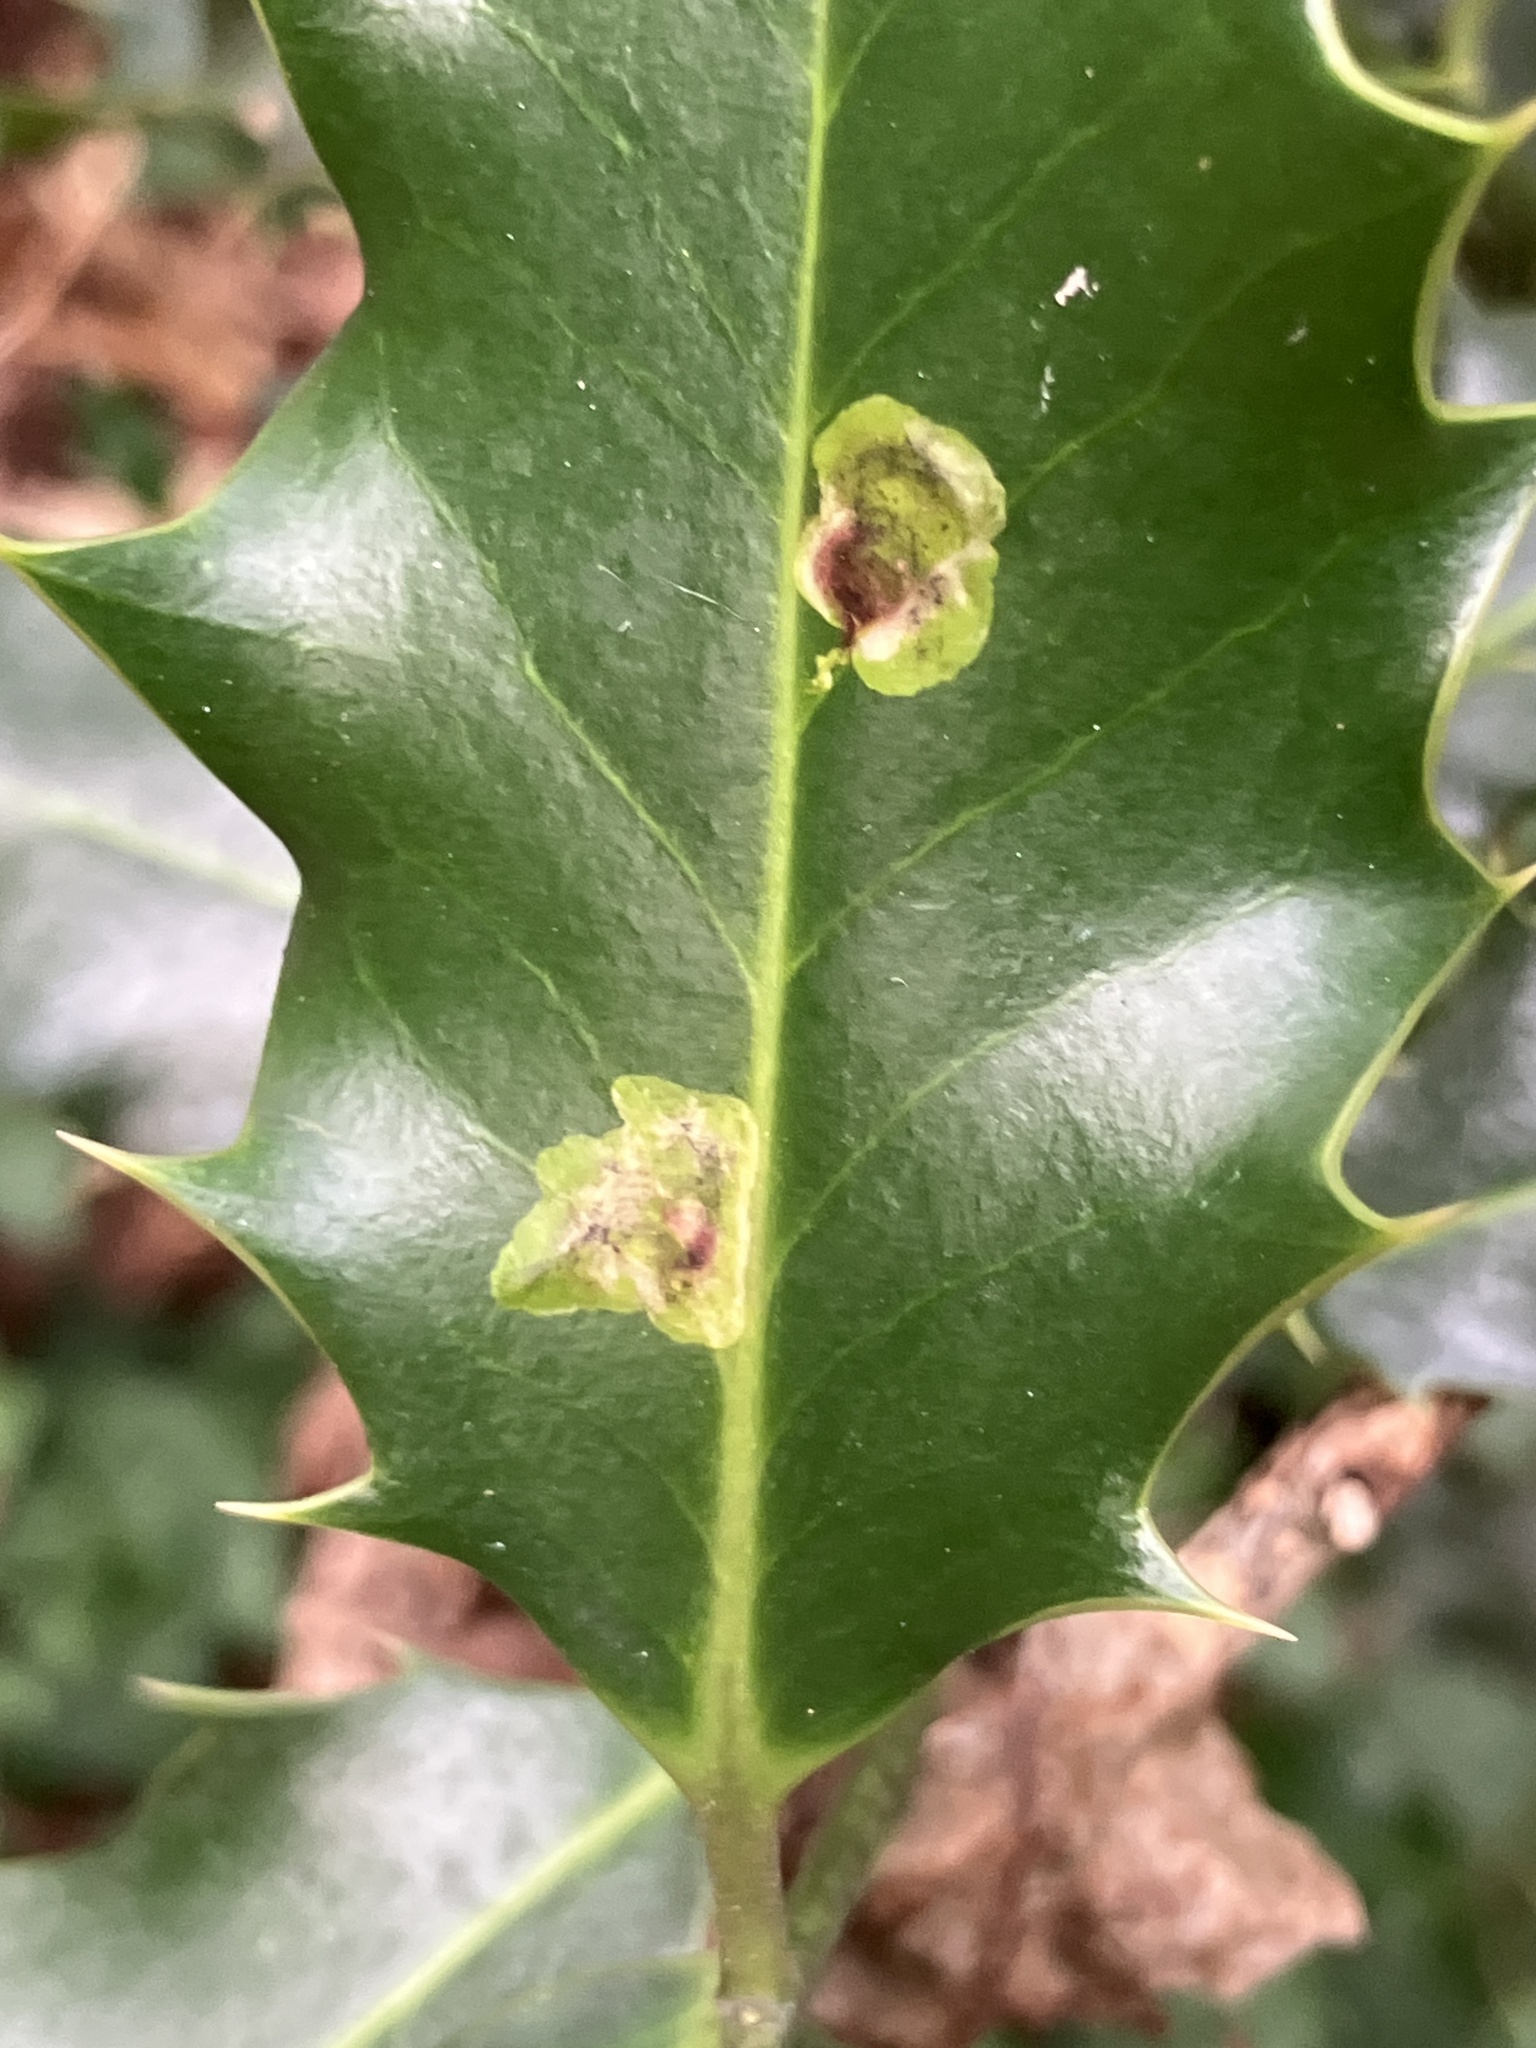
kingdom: Animalia
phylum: Arthropoda
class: Insecta
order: Diptera
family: Agromyzidae
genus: Phytomyza
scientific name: Phytomyza ilicis
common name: Holly leafminer
